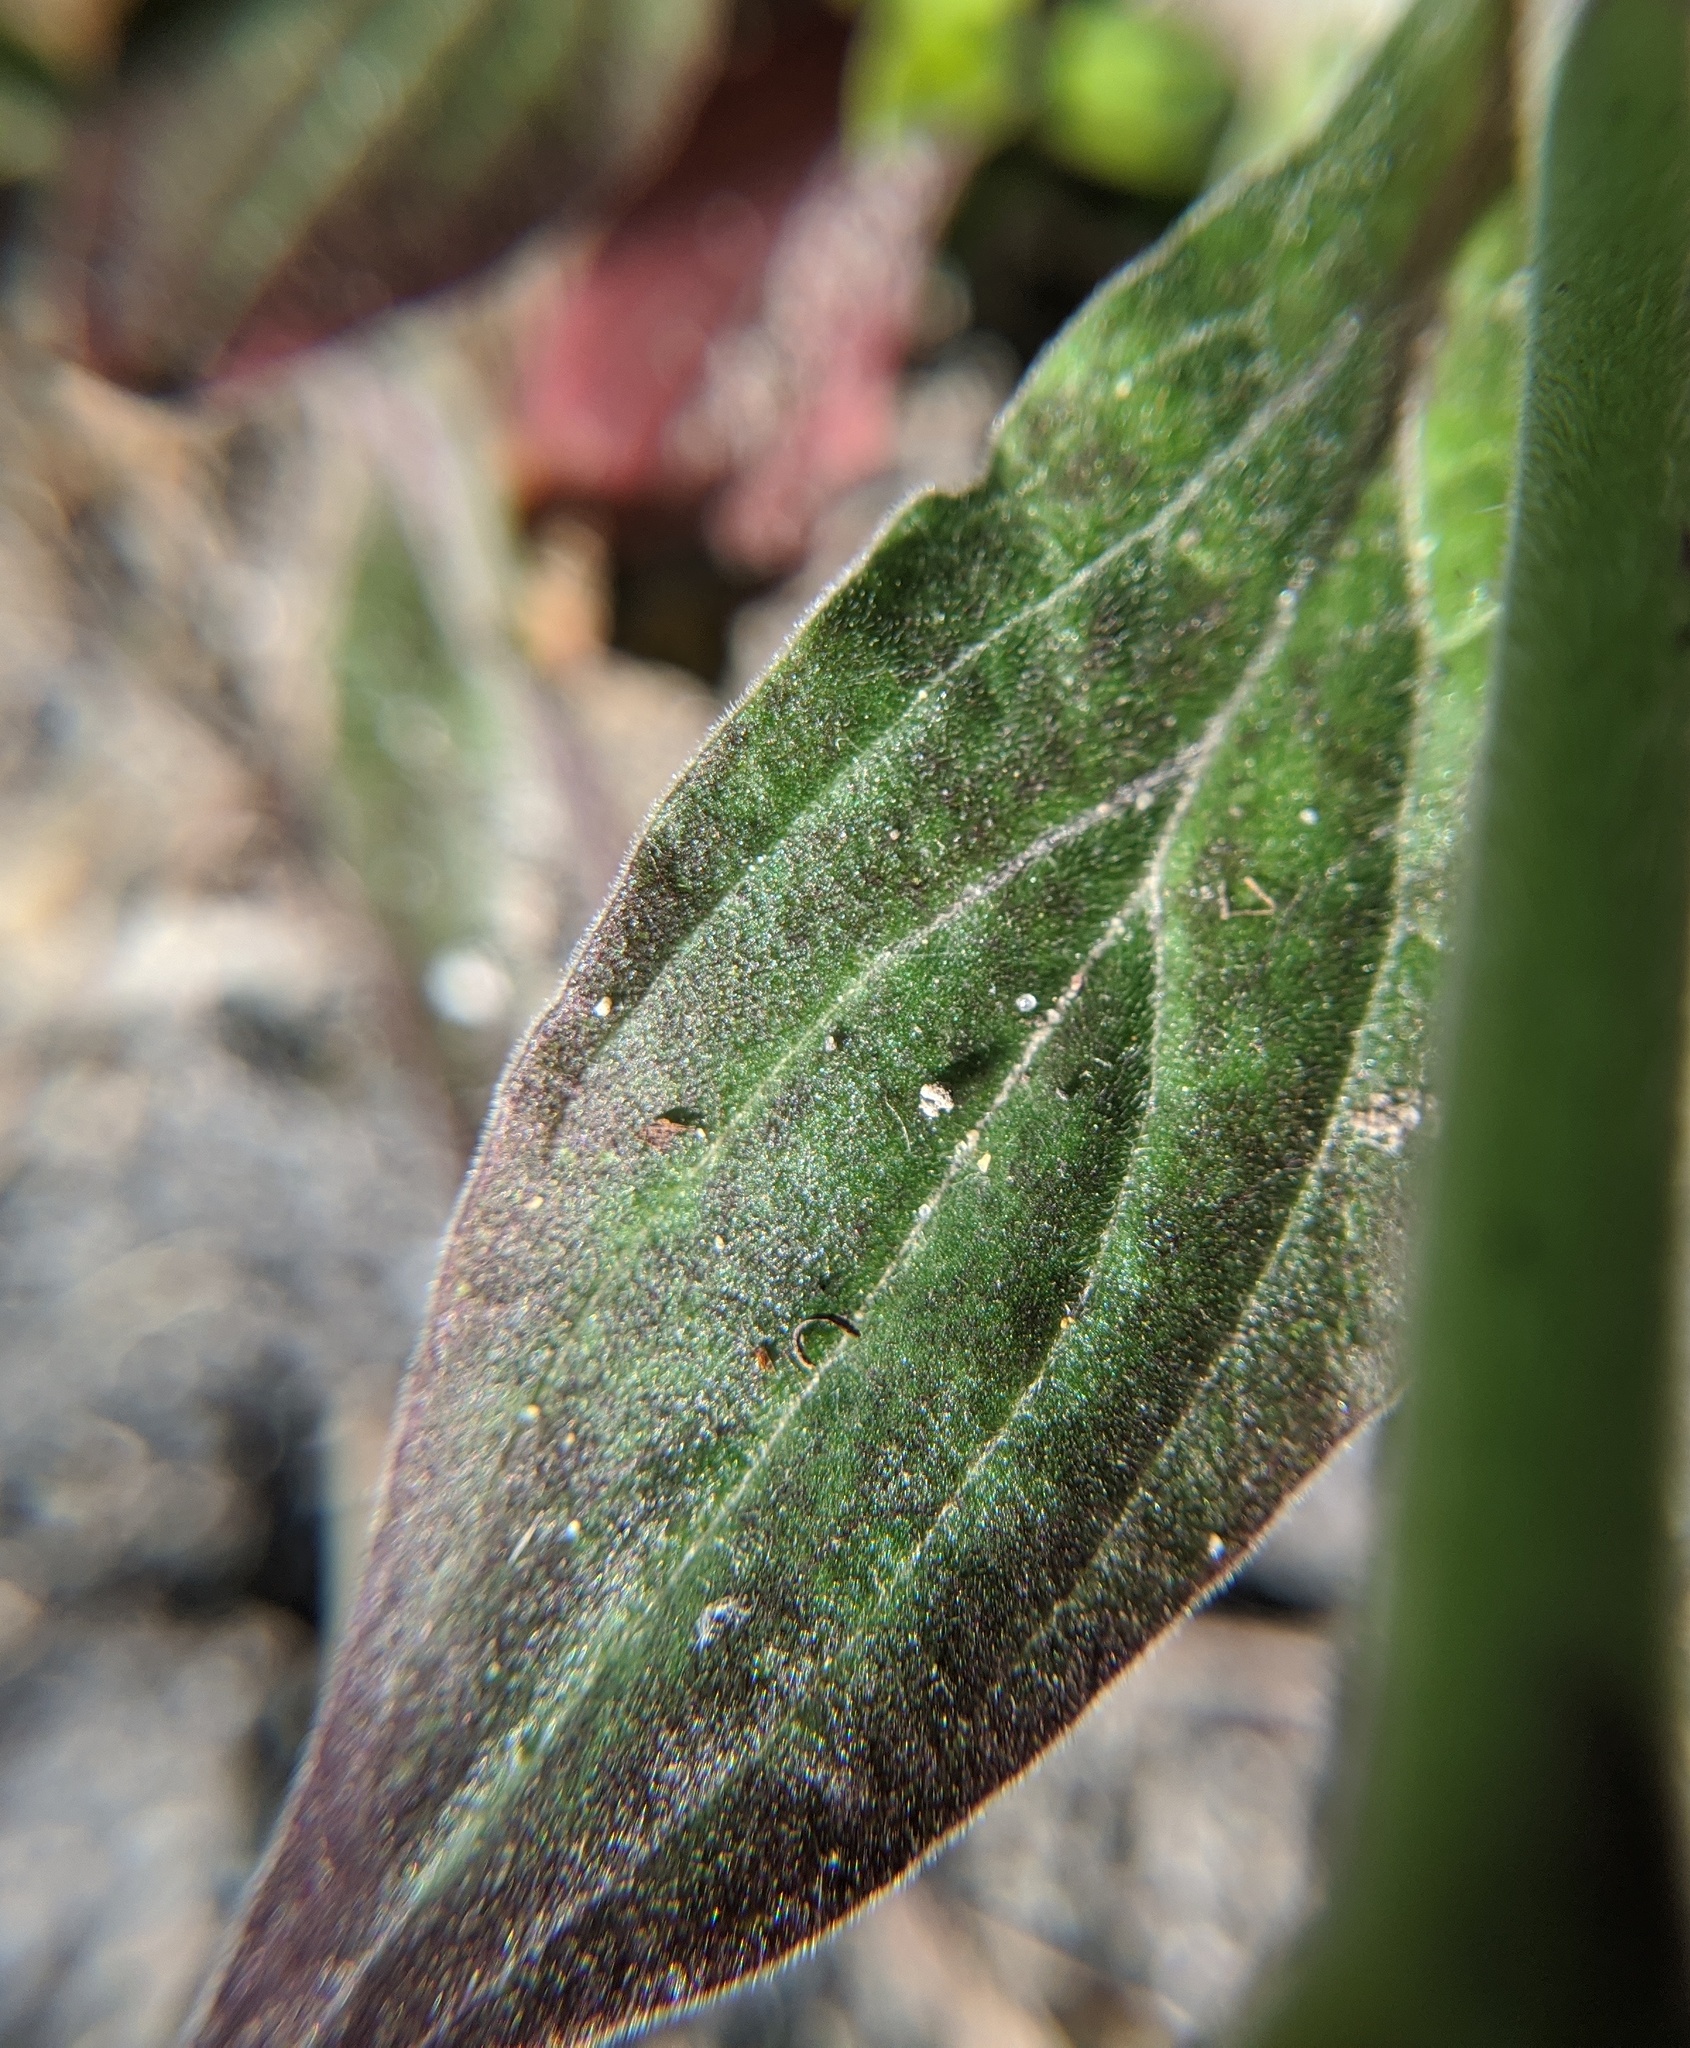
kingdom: Plantae
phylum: Tracheophyta
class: Magnoliopsida
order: Caryophyllales
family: Caryophyllaceae
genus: Silene
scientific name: Silene latifolia
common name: White campion
